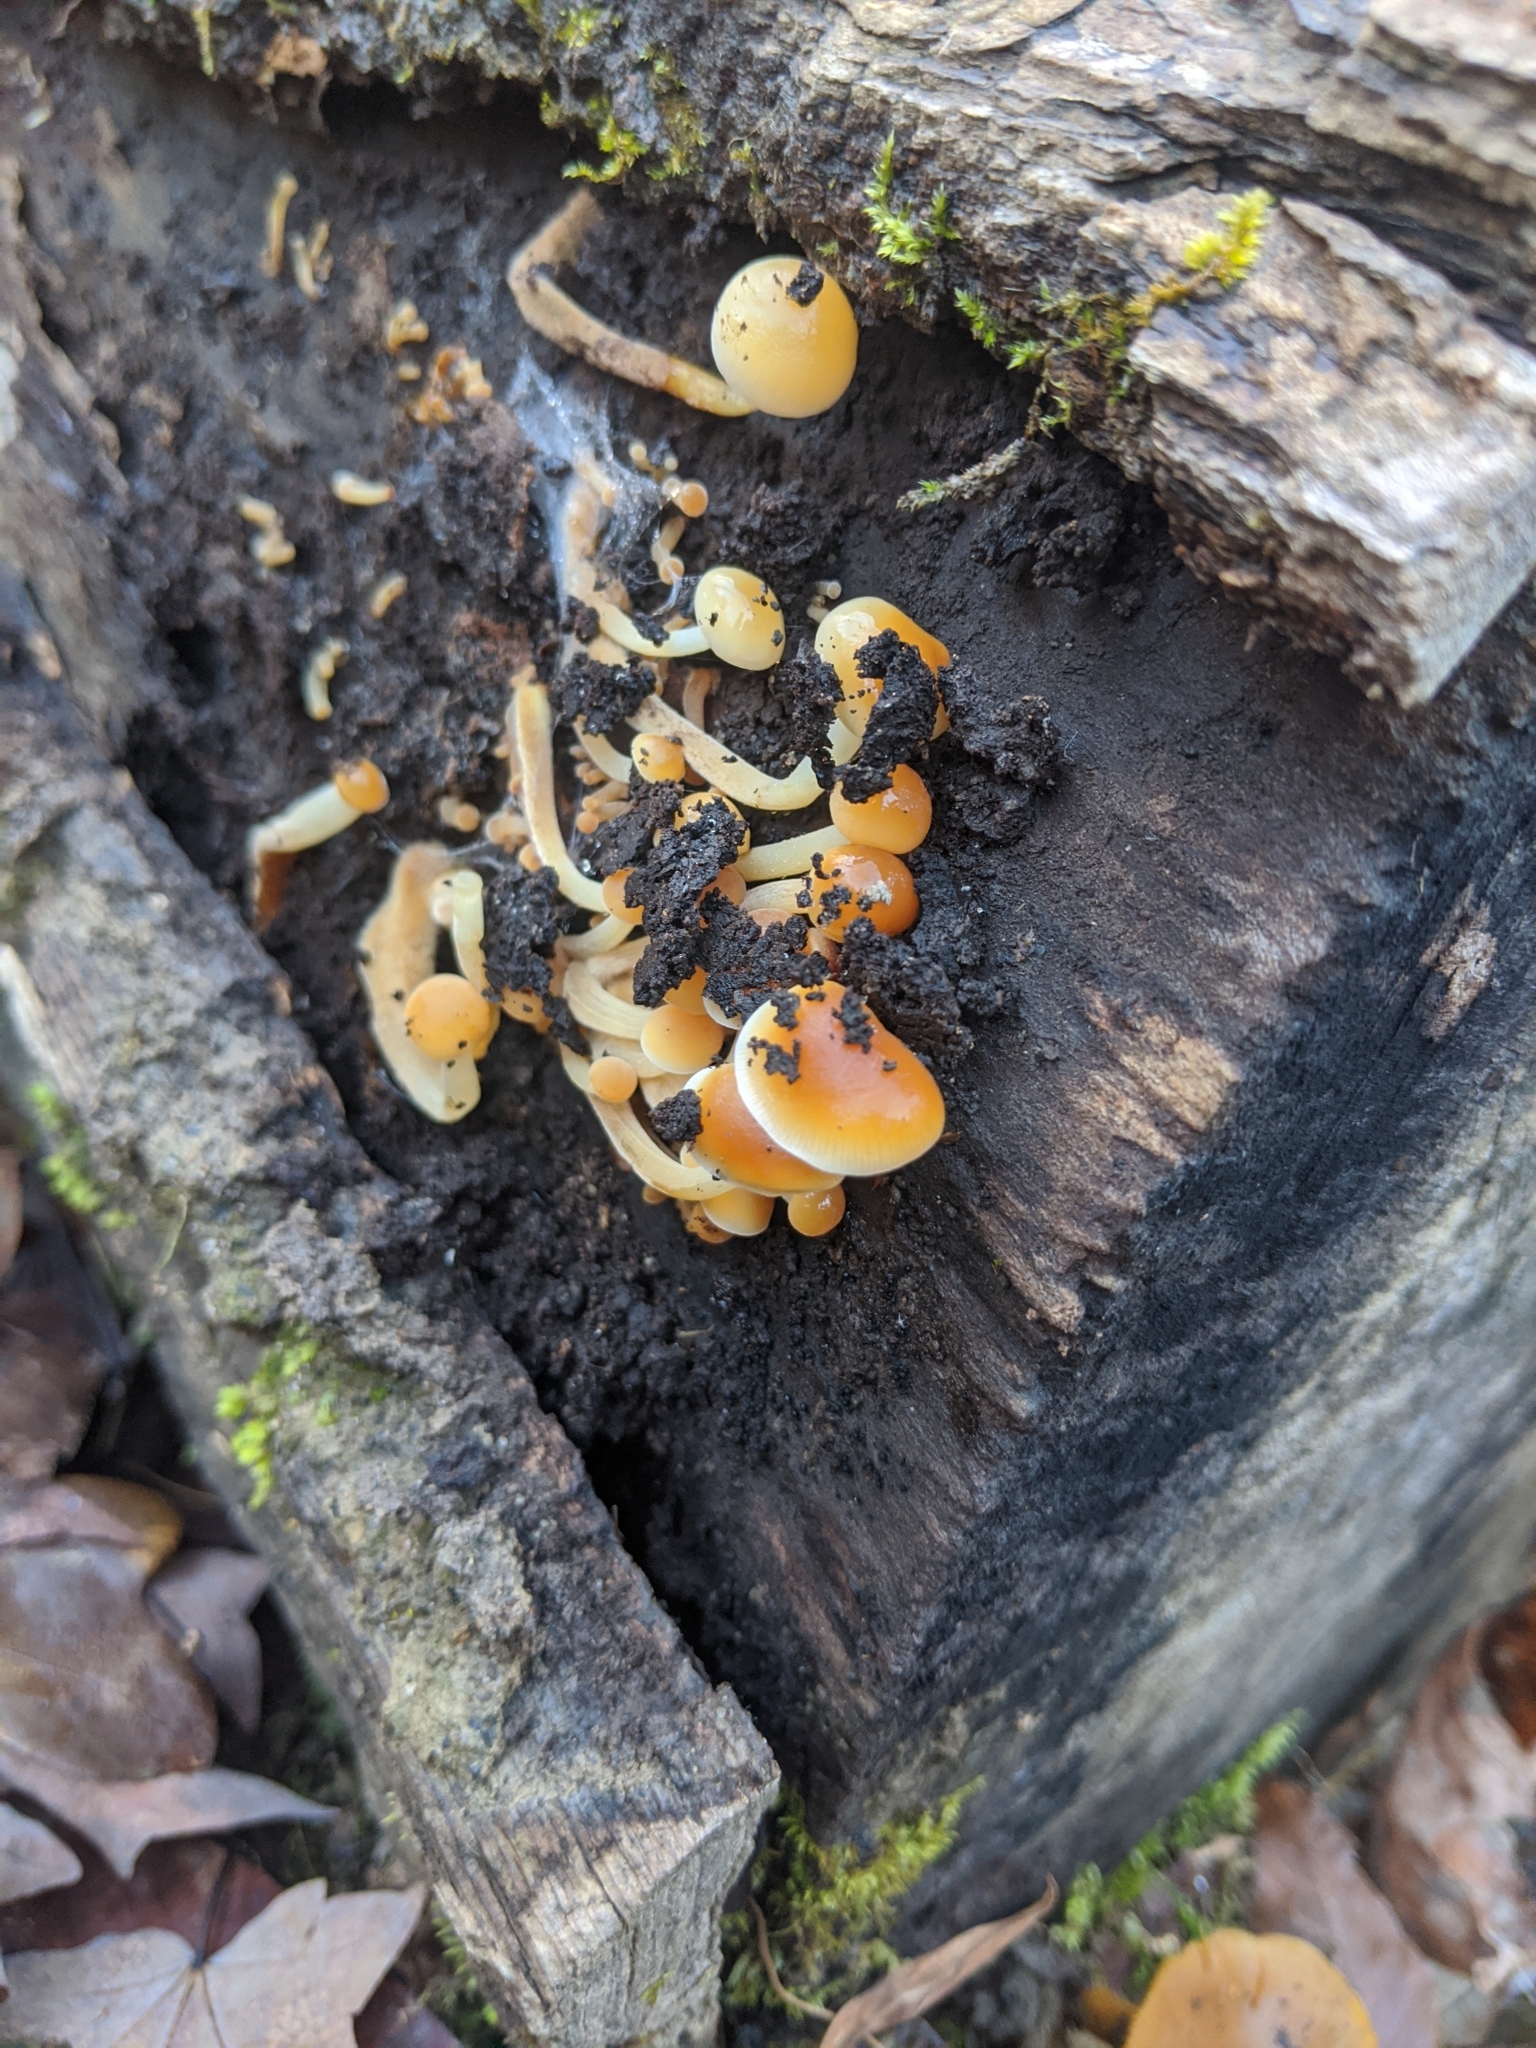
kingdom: Fungi
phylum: Basidiomycota
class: Agaricomycetes
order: Agaricales
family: Physalacriaceae
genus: Flammulina
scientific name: Flammulina velutipes
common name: Velvet shank
